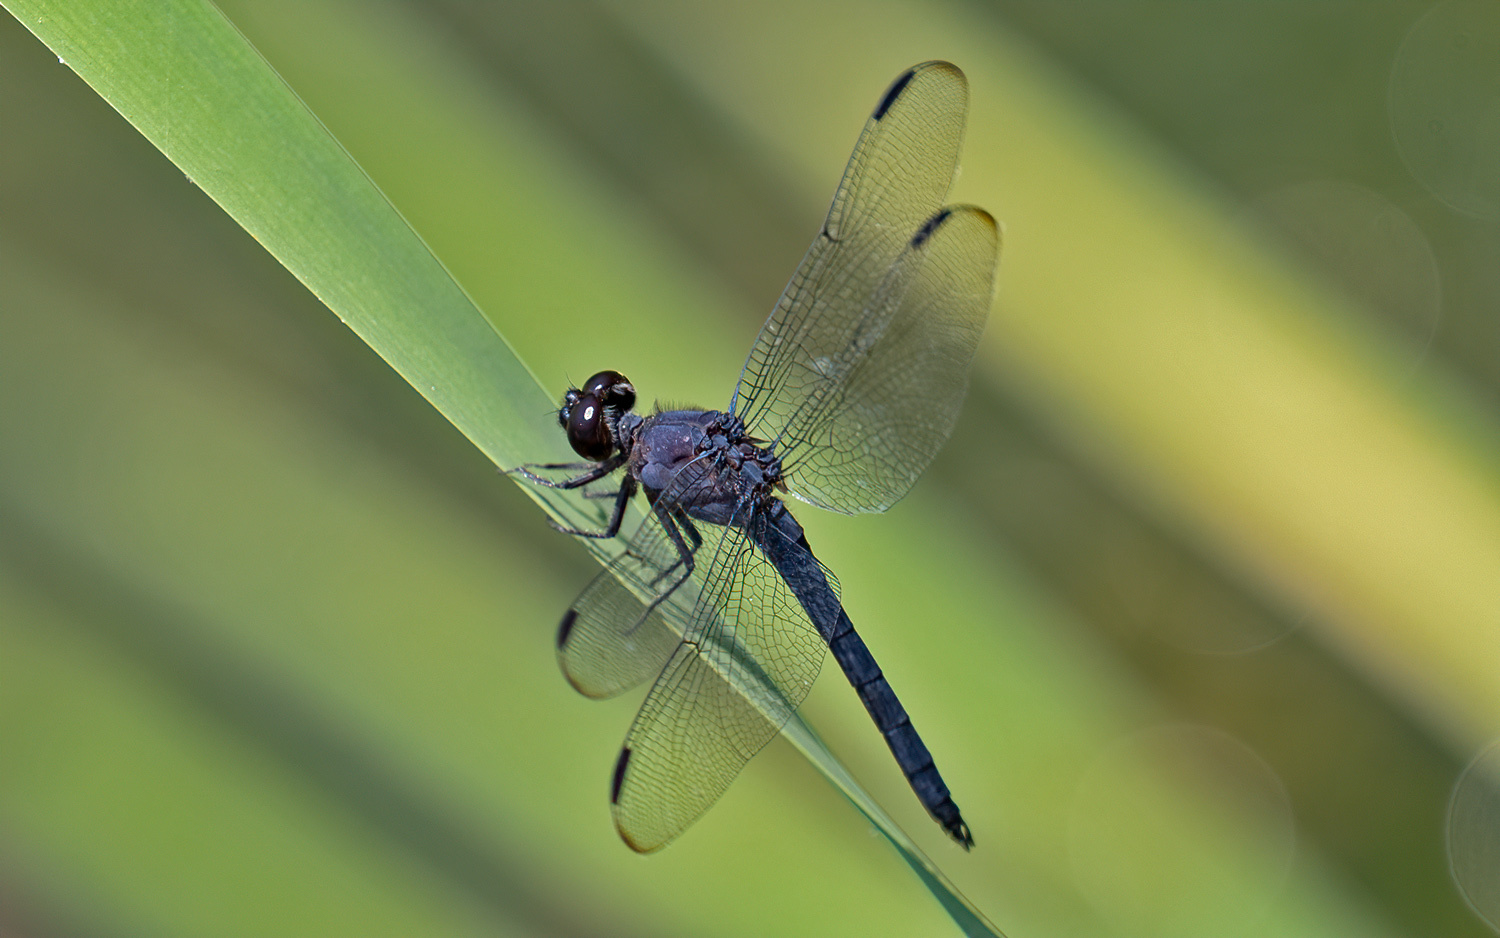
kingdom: Animalia
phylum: Arthropoda
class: Insecta
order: Odonata
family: Libellulidae
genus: Libellula
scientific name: Libellula incesta
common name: Slaty skimmer
